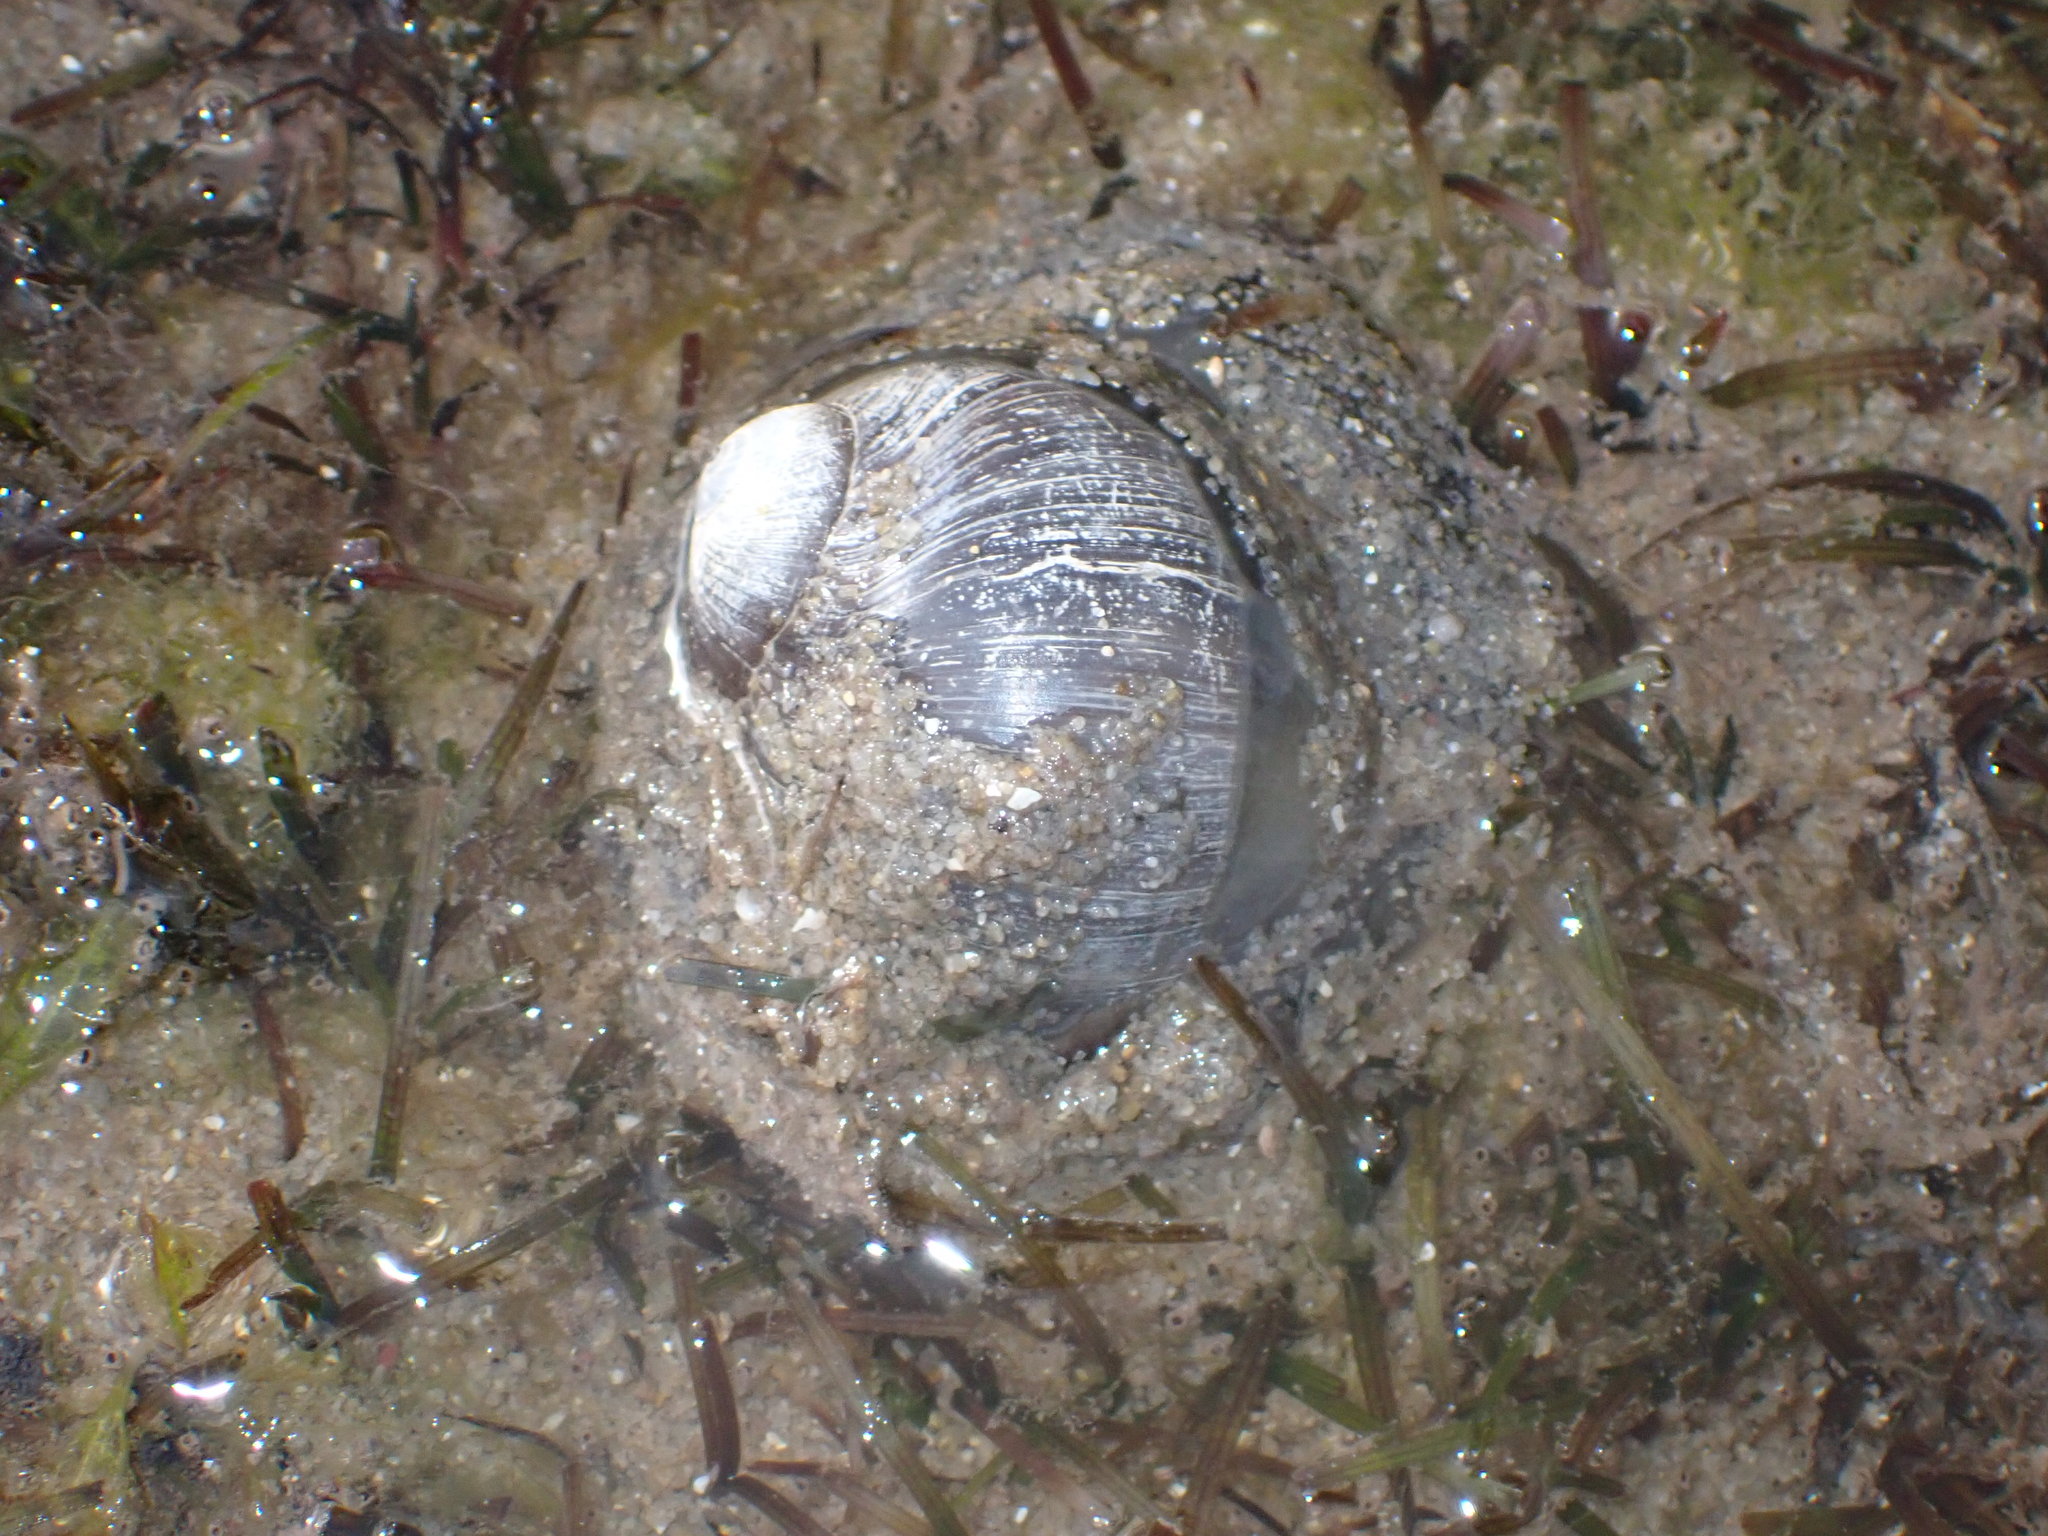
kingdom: Animalia
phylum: Mollusca
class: Gastropoda
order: Littorinimorpha
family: Naticidae
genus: Conuber
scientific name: Conuber sordidum
